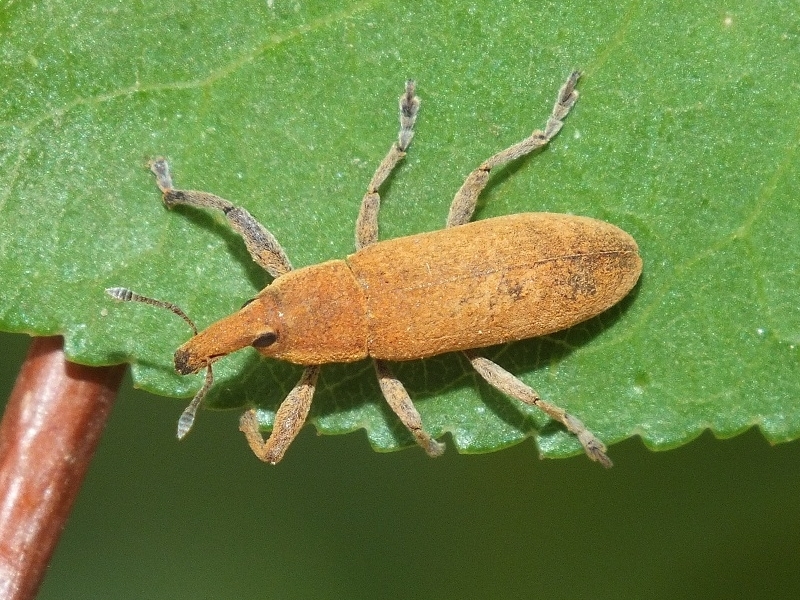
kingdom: Animalia
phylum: Arthropoda
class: Insecta
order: Coleoptera
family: Curculionidae
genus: Lixus
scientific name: Lixus punctiventris
